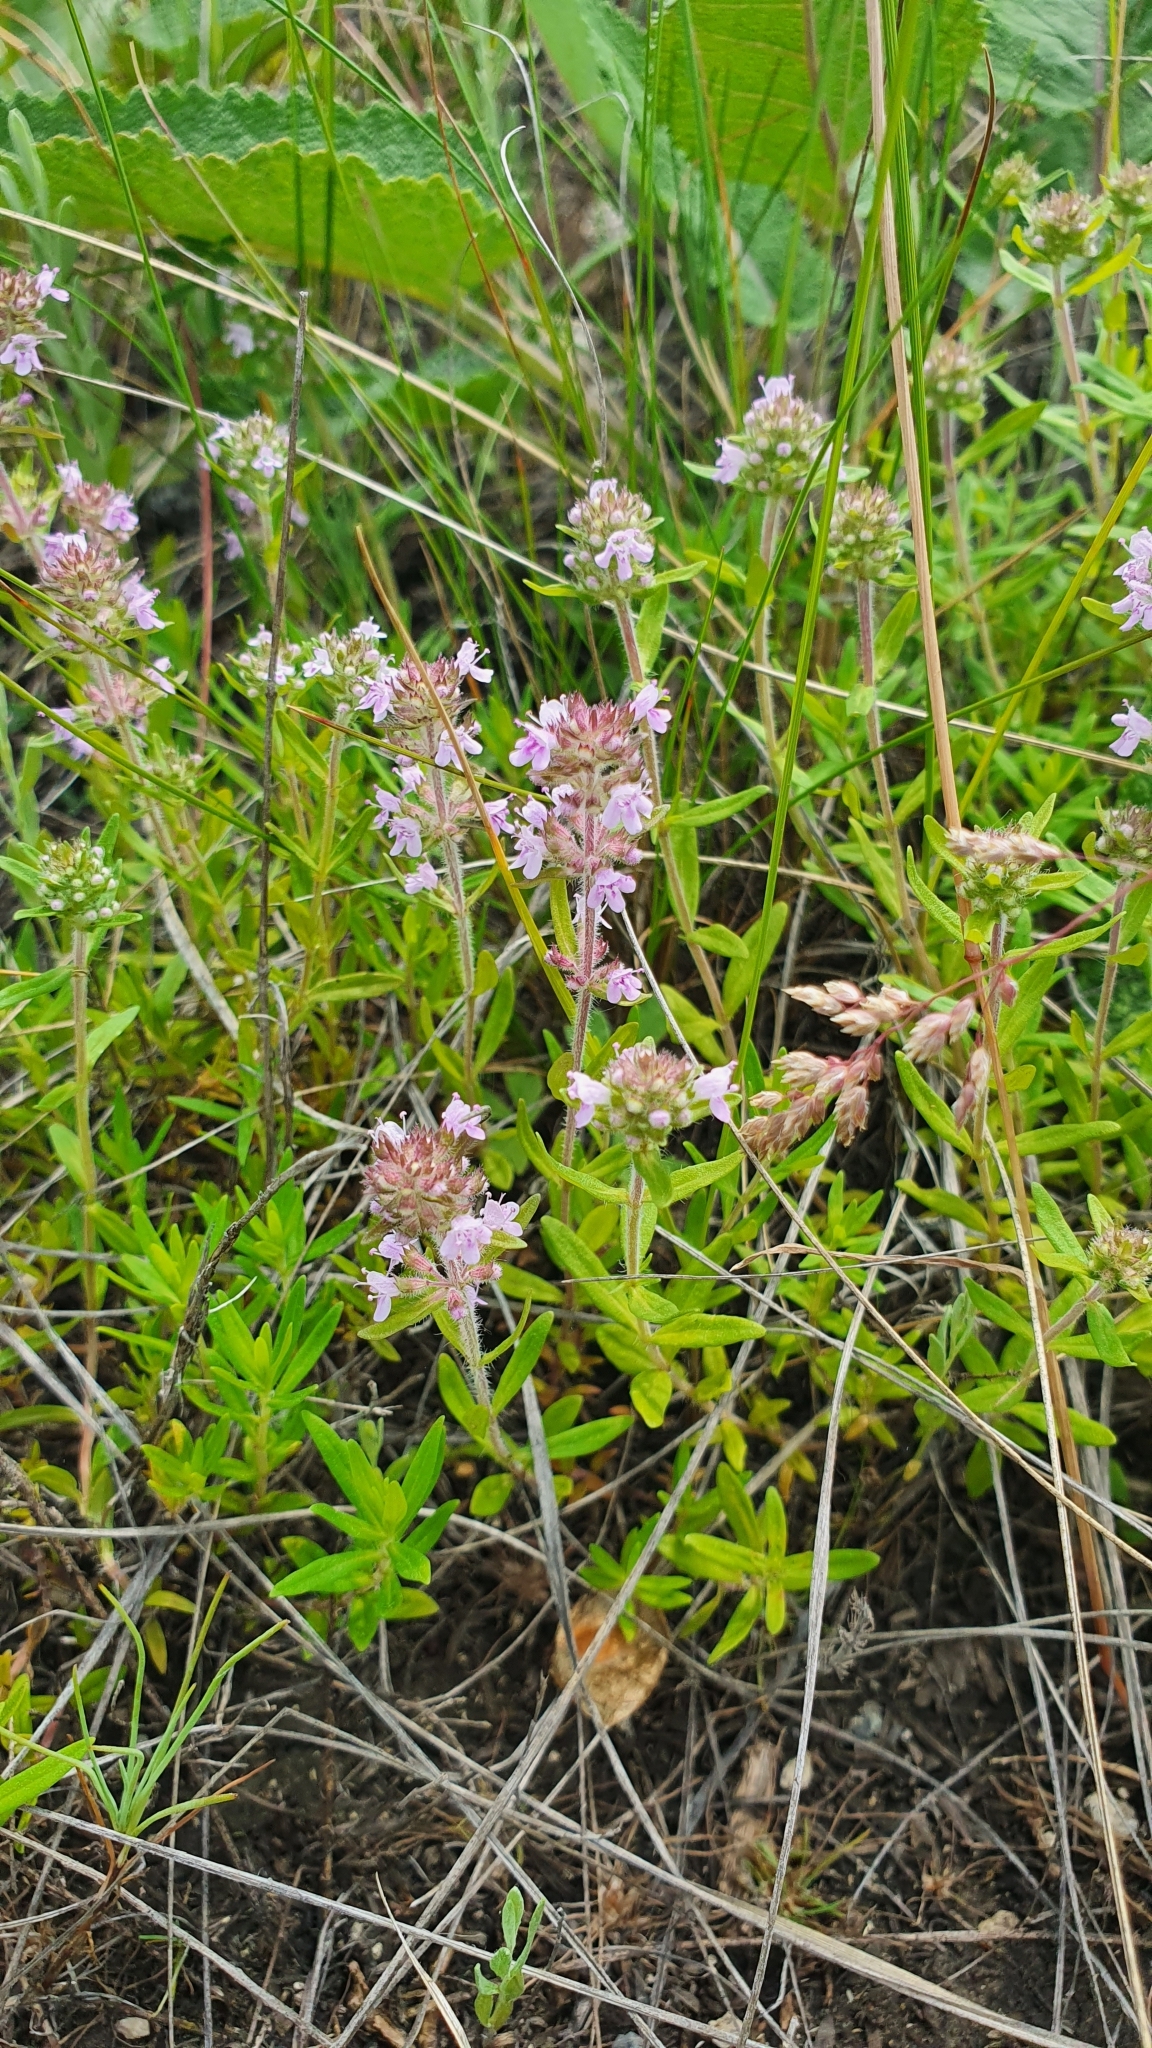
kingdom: Plantae
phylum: Tracheophyta
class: Magnoliopsida
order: Lamiales
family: Lamiaceae
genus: Thymus
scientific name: Thymus pannonicus
